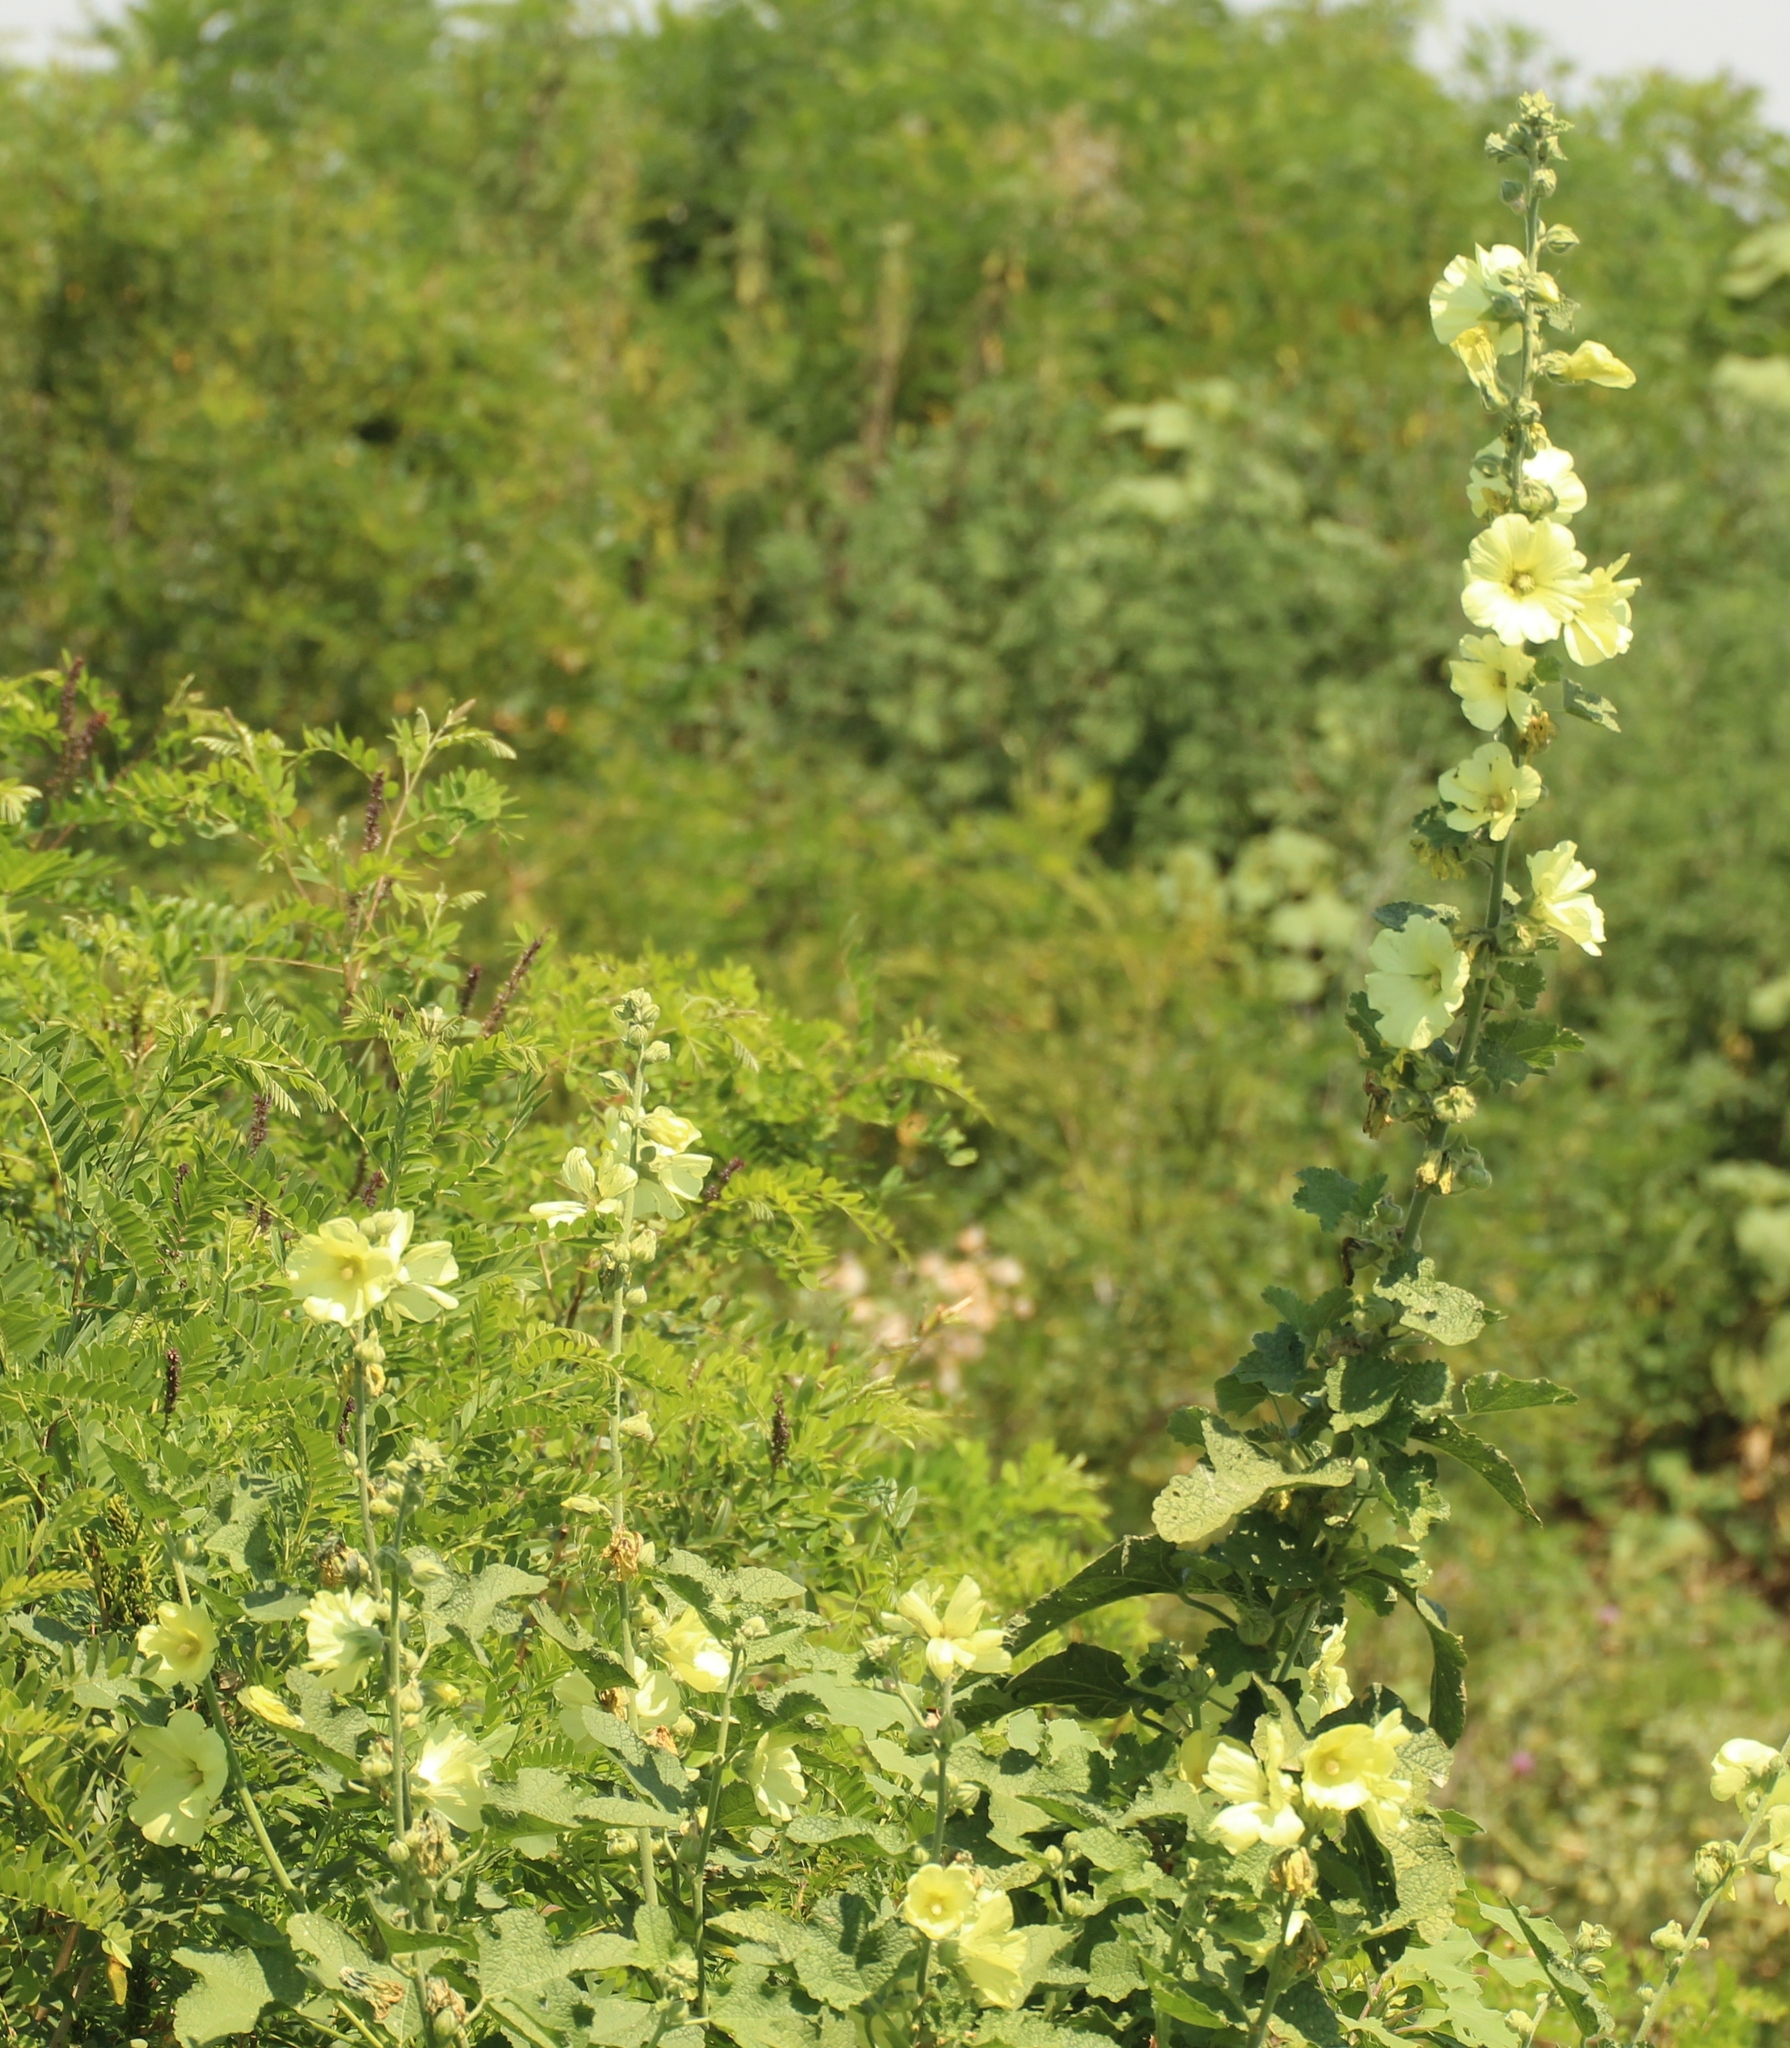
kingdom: Plantae
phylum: Tracheophyta
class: Magnoliopsida
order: Malvales
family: Malvaceae
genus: Alcea
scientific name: Alcea rugosa
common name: Russian hollyhock
